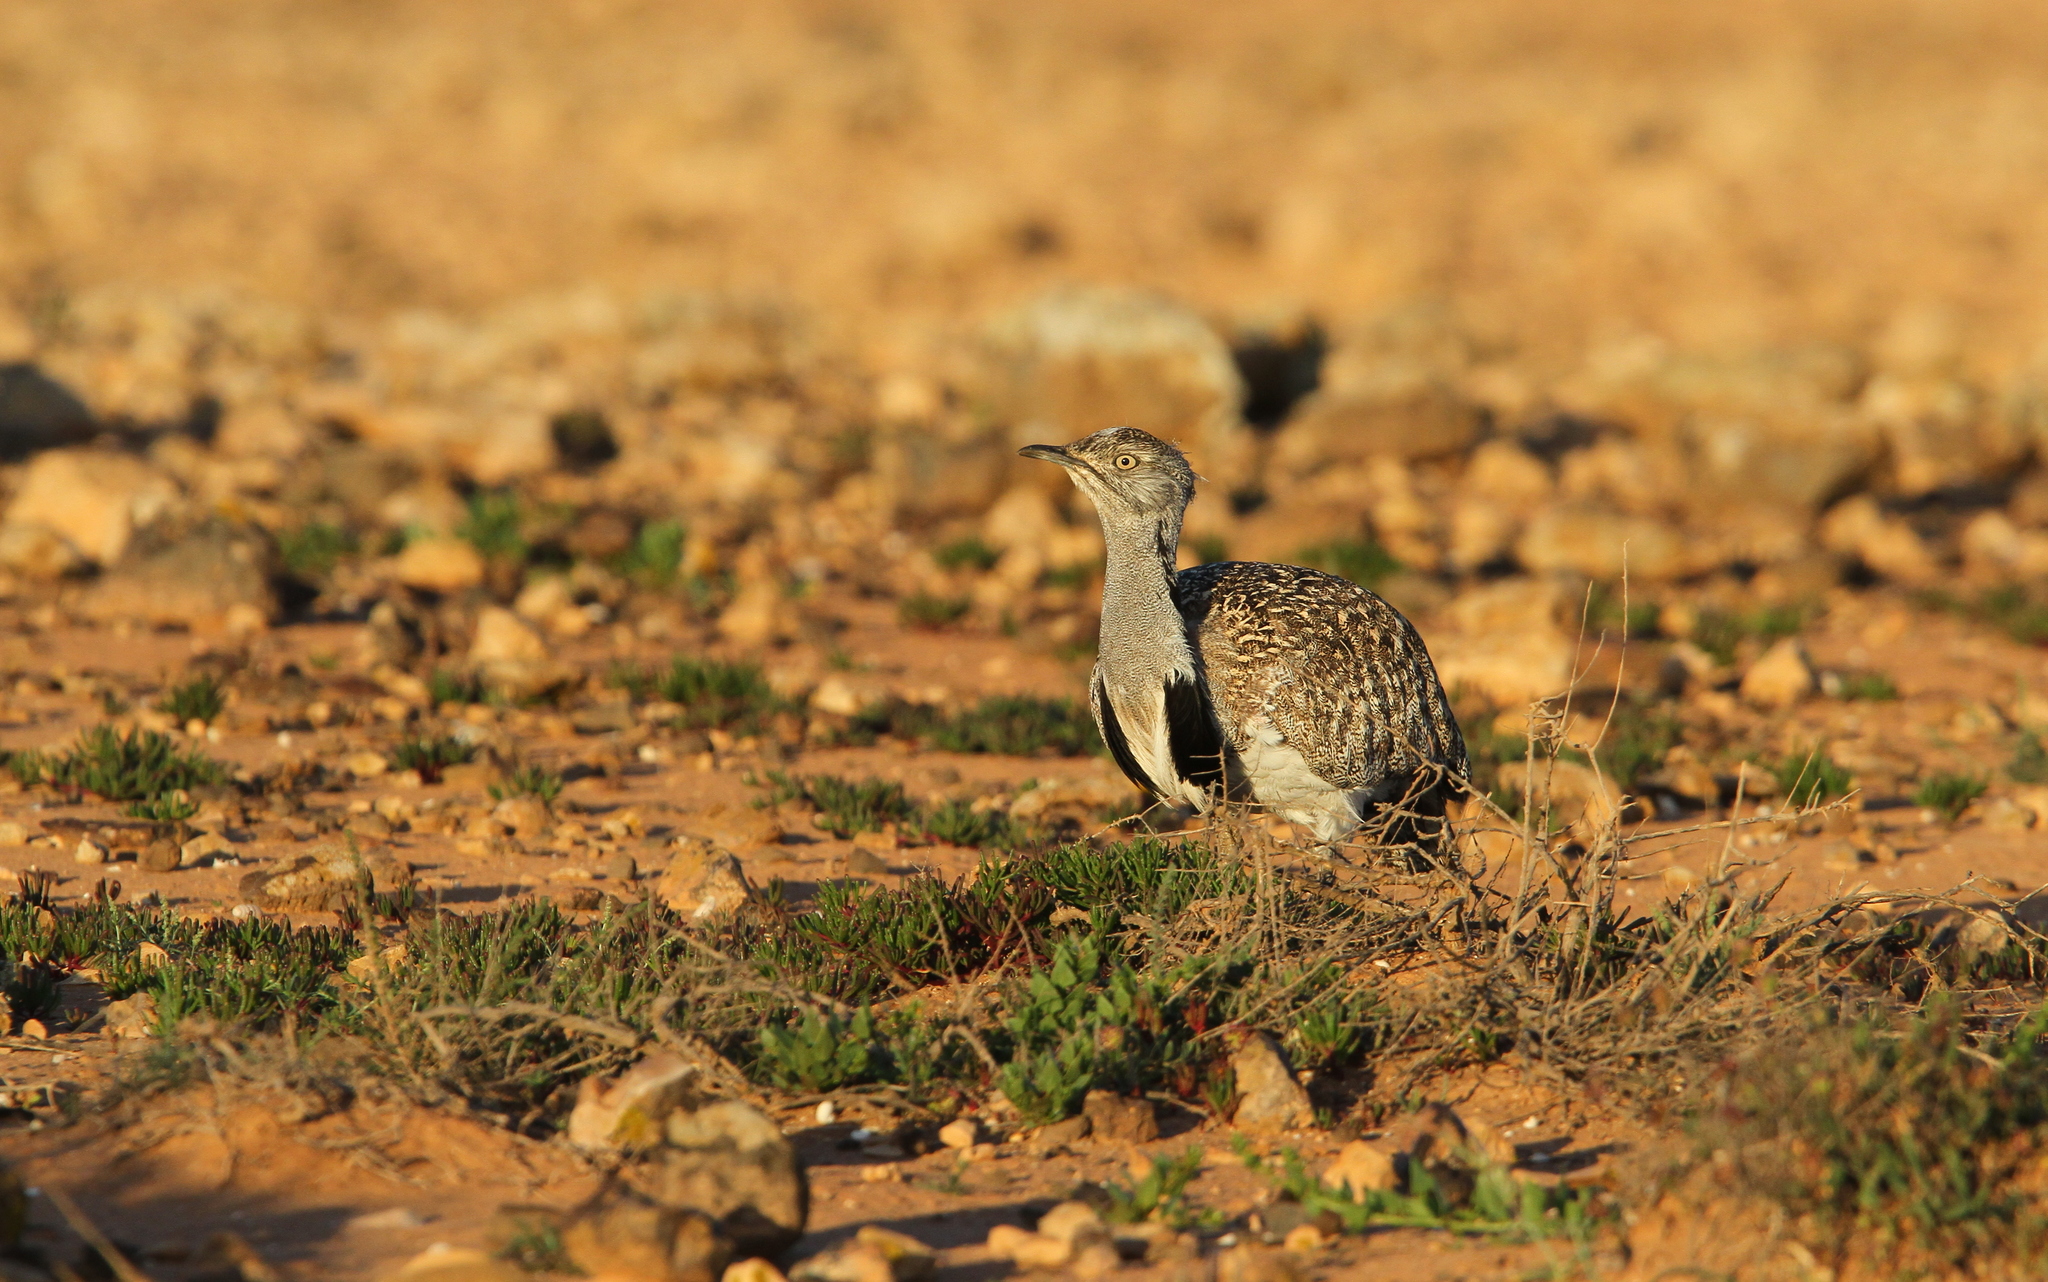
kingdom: Animalia
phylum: Chordata
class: Aves
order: Otidiformes
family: Otididae
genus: Chlamydotis
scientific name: Chlamydotis undulata
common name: Houbara bustard
